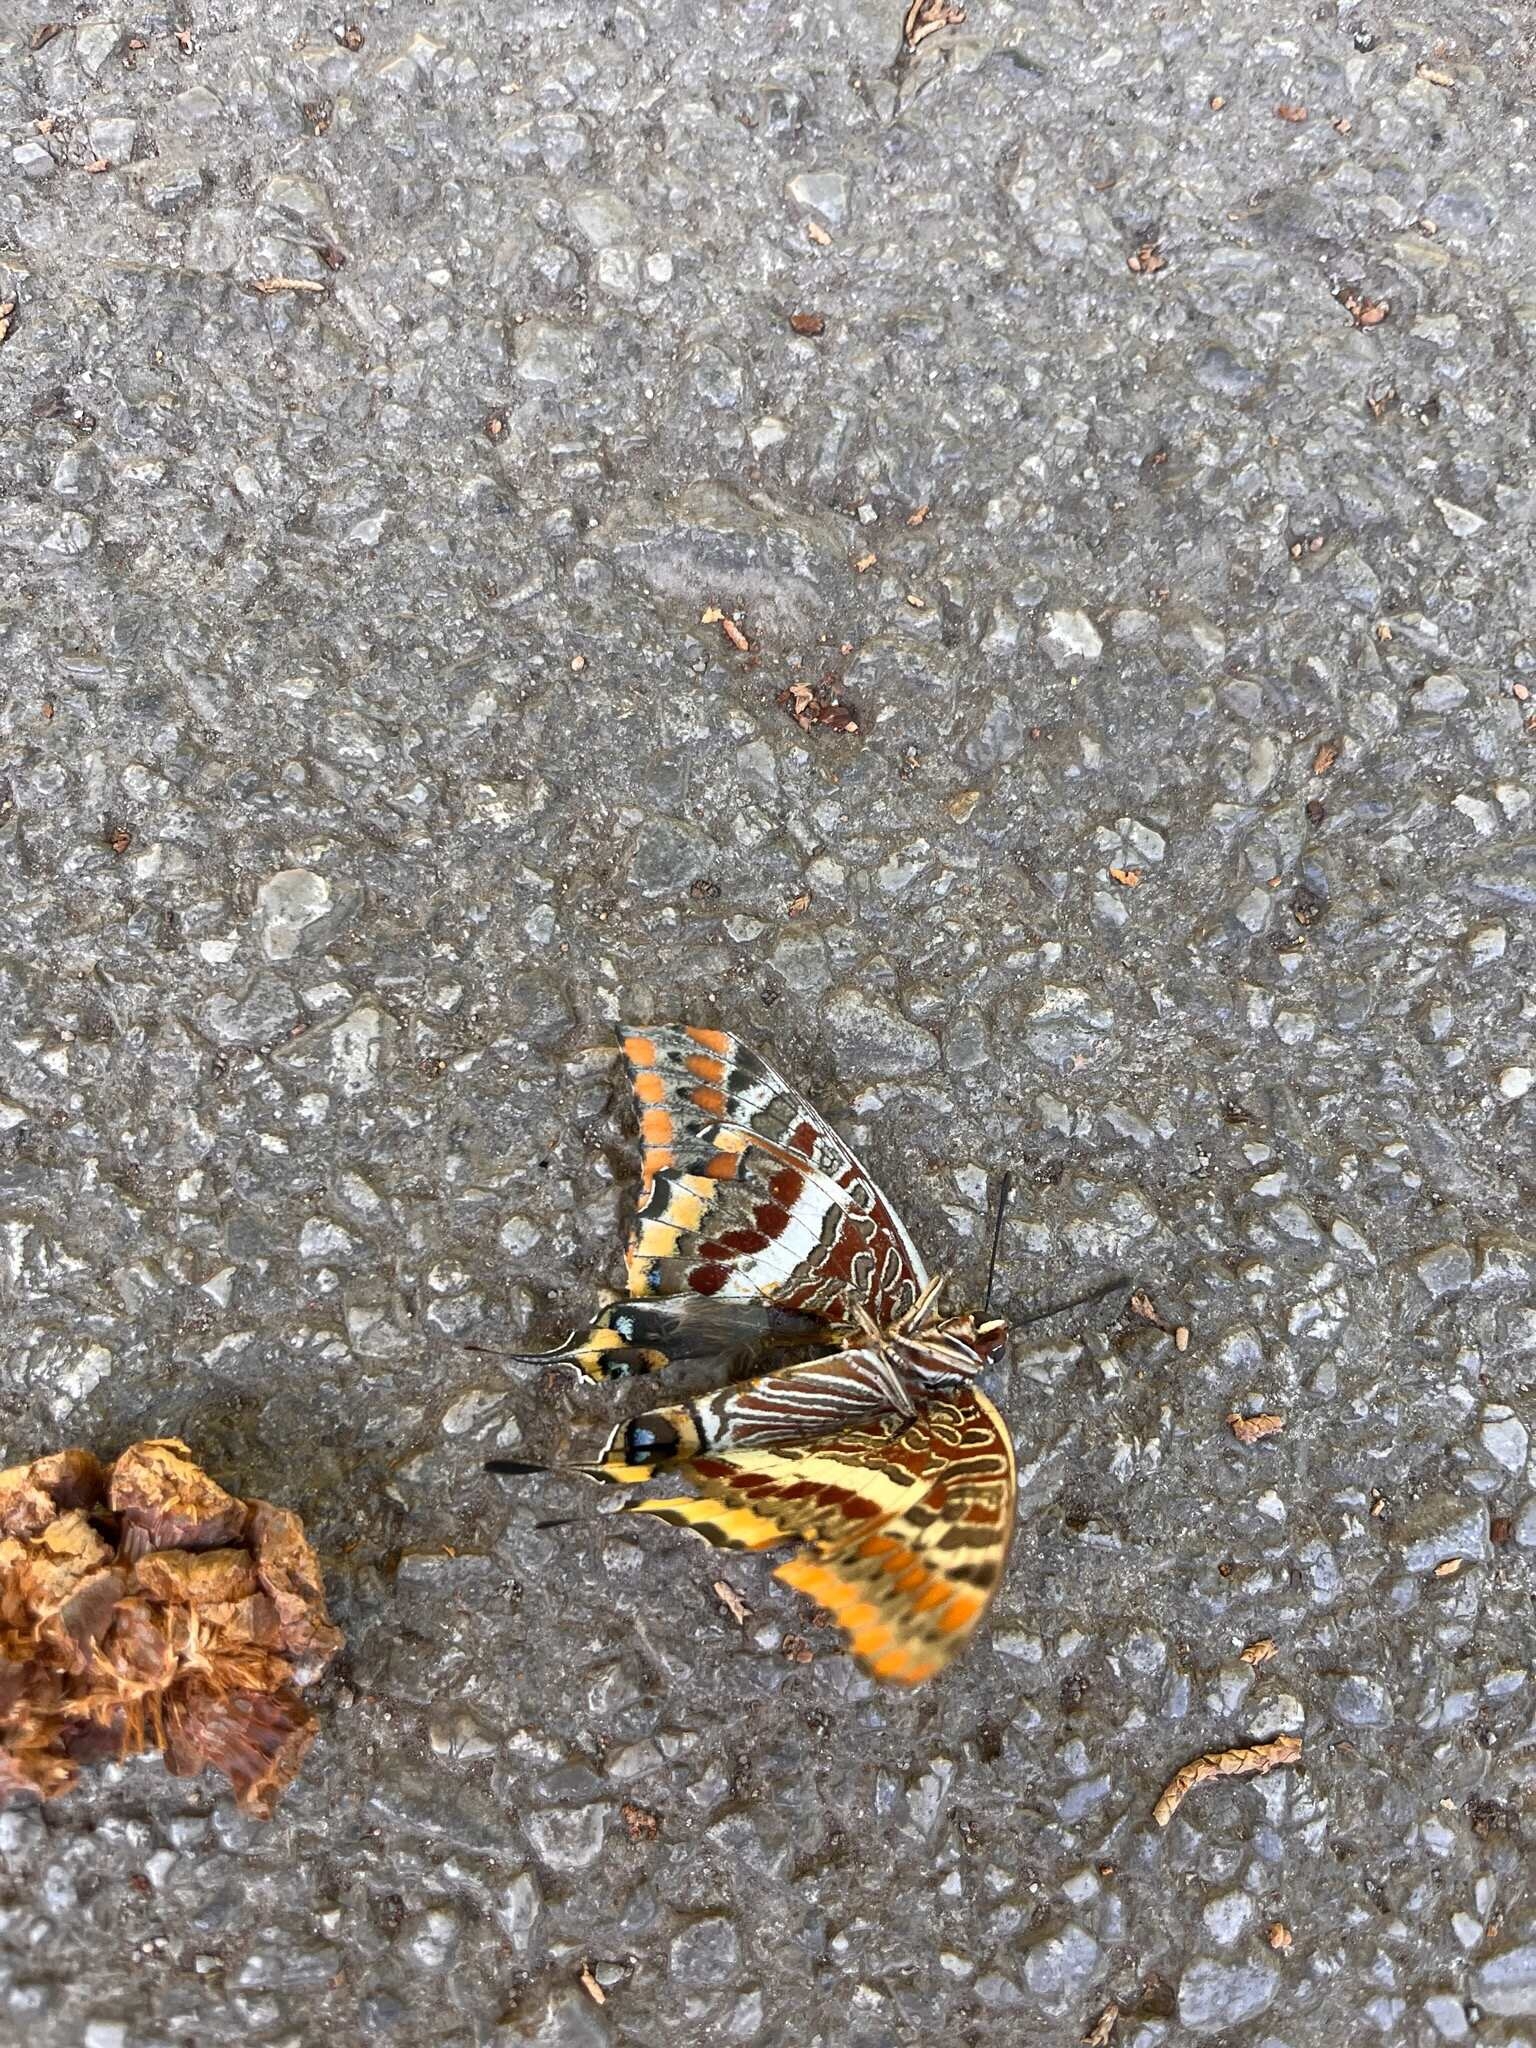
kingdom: Animalia
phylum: Arthropoda
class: Insecta
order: Lepidoptera
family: Nymphalidae
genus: Charaxes
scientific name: Charaxes jasius
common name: Two tailed pasha
